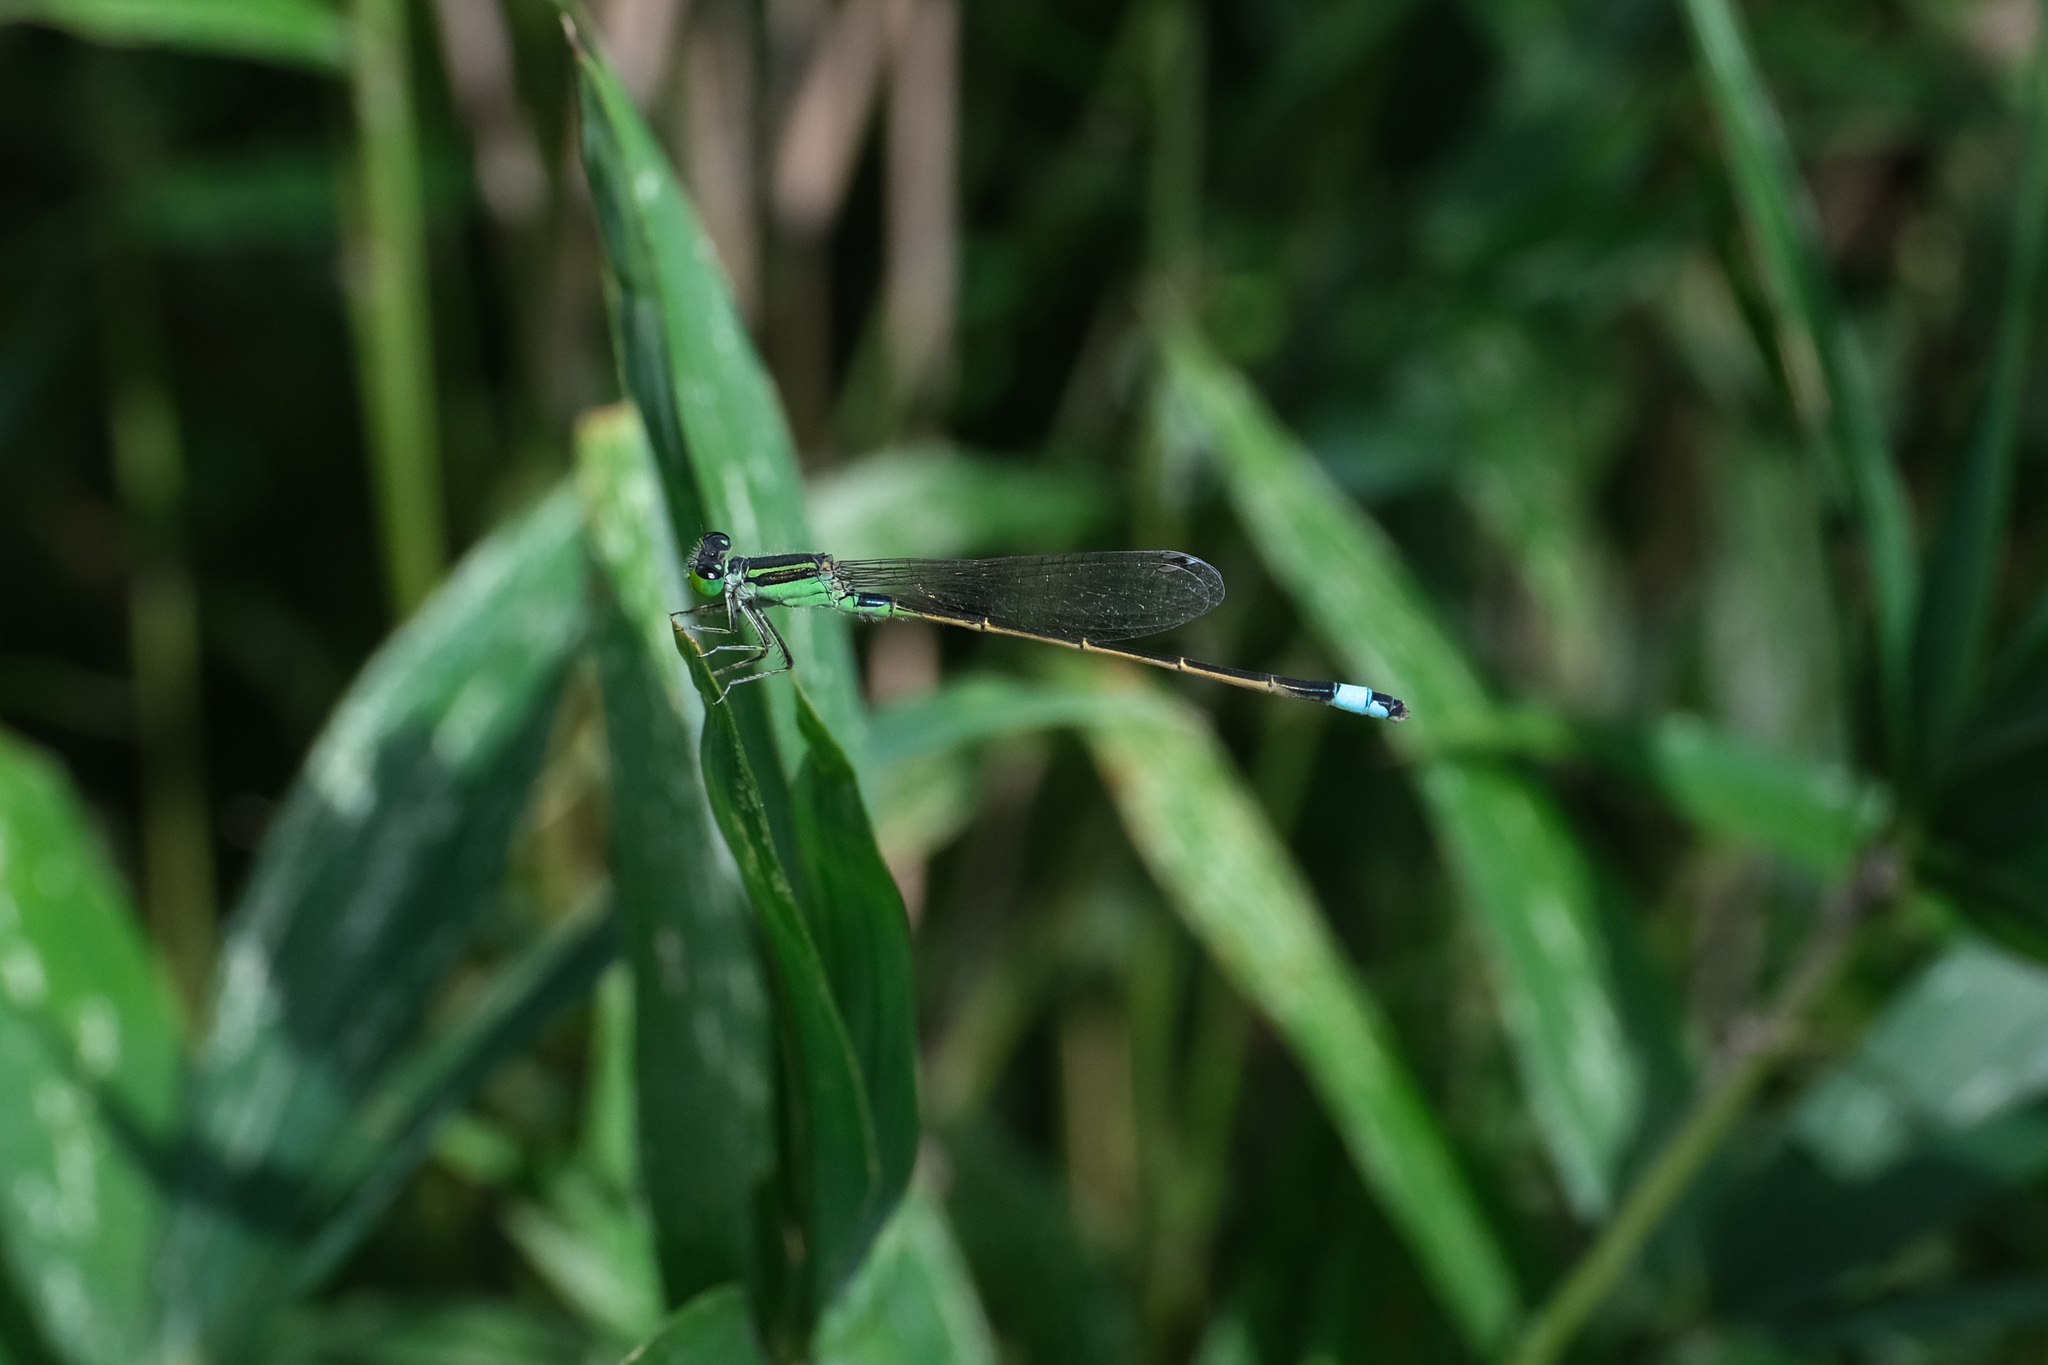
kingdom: Animalia
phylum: Arthropoda
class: Insecta
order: Odonata
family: Coenagrionidae
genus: Ischnura
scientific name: Ischnura senegalensis
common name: Tropical bluetail
